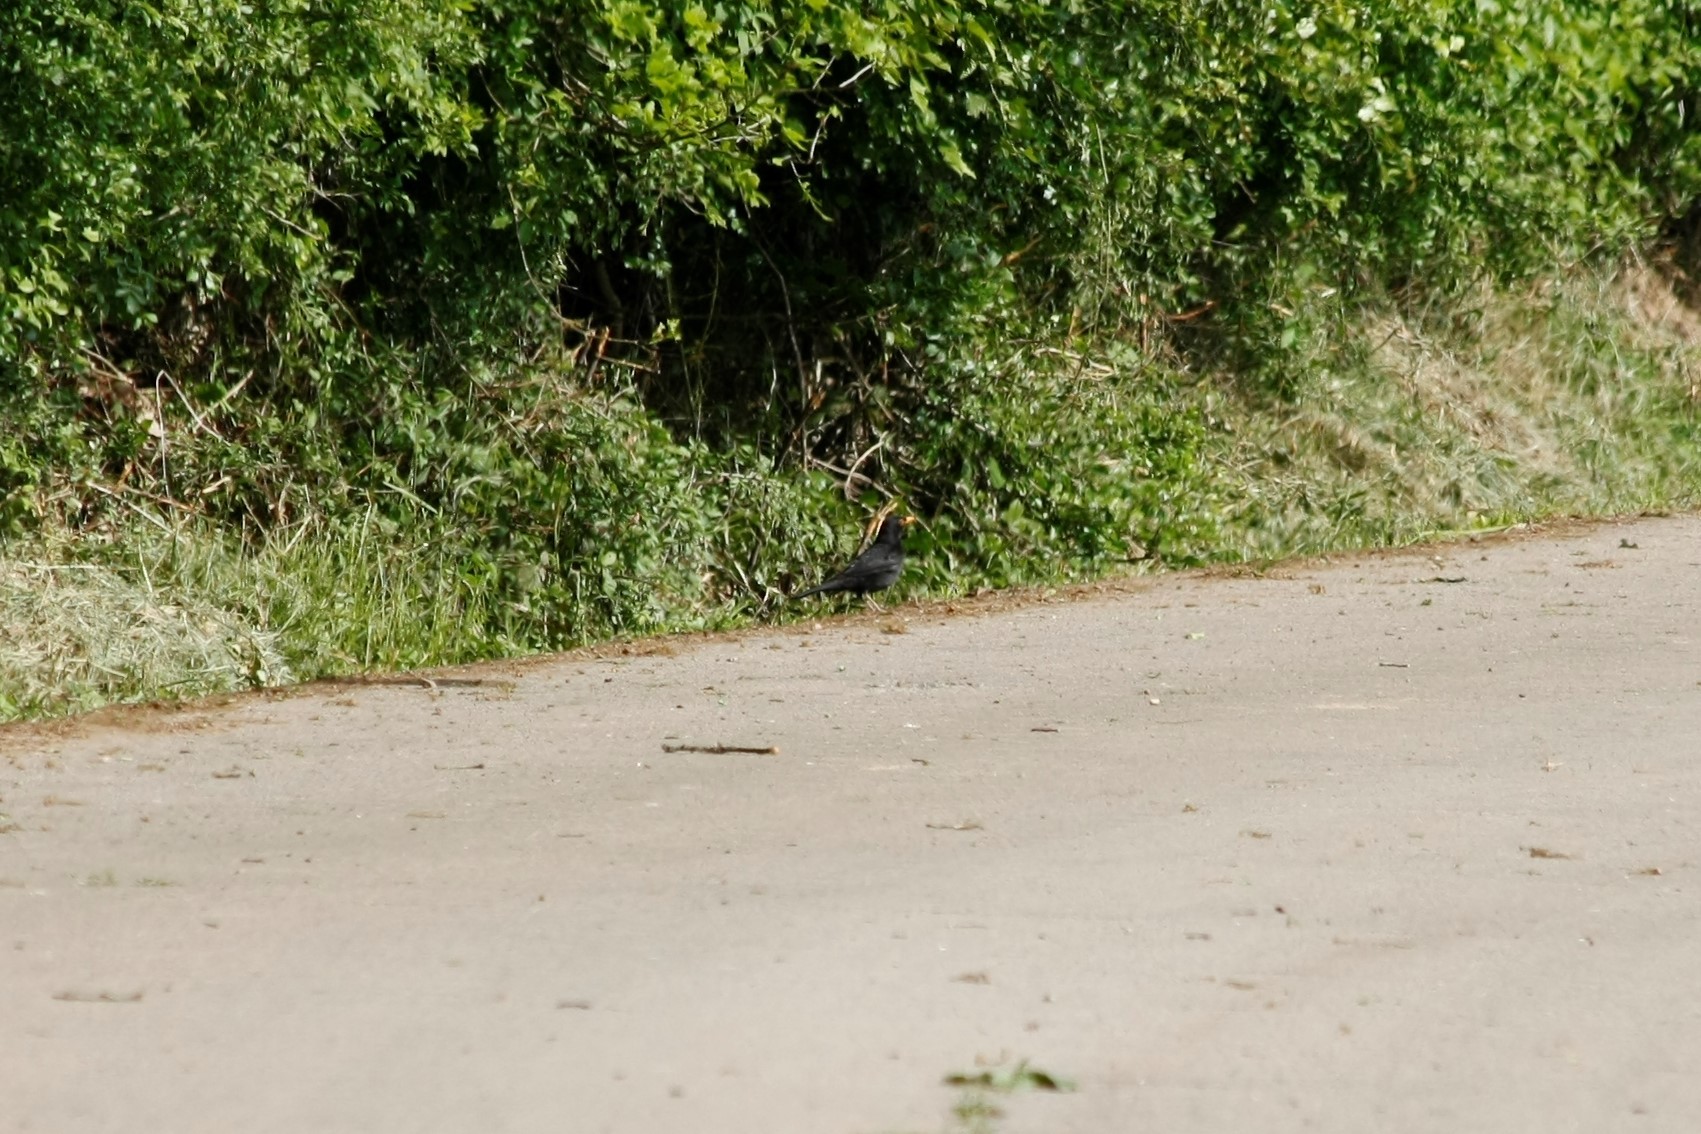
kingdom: Animalia
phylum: Chordata
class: Aves
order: Passeriformes
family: Turdidae
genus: Turdus
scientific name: Turdus merula
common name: Common blackbird
